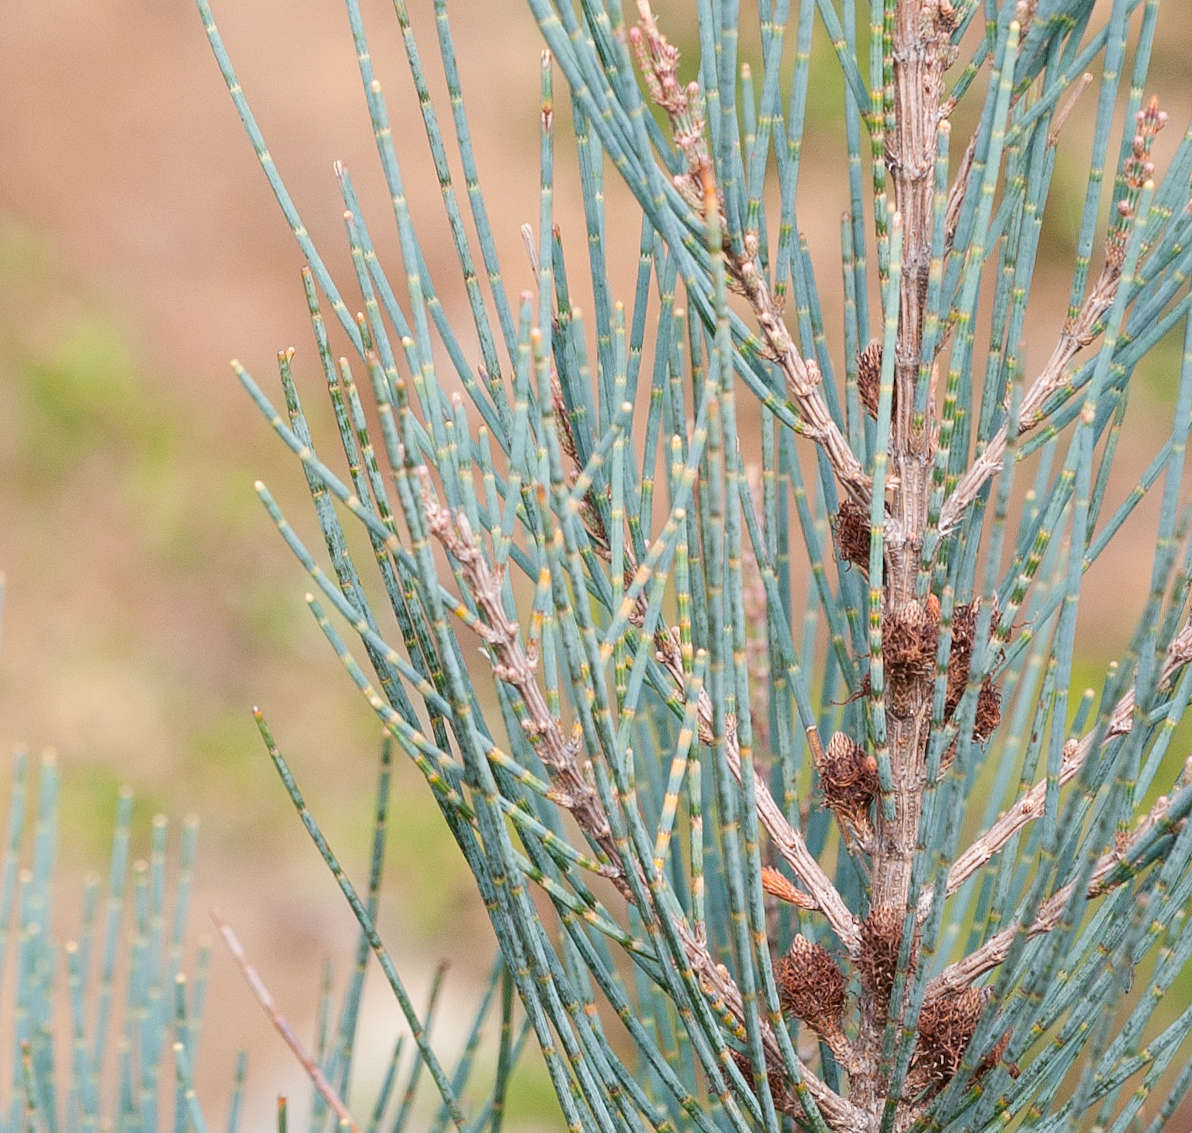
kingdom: Plantae
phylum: Tracheophyta
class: Magnoliopsida
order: Fagales
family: Casuarinaceae
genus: Allocasuarina
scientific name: Allocasuarina grampiana
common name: Grampians sheoak
